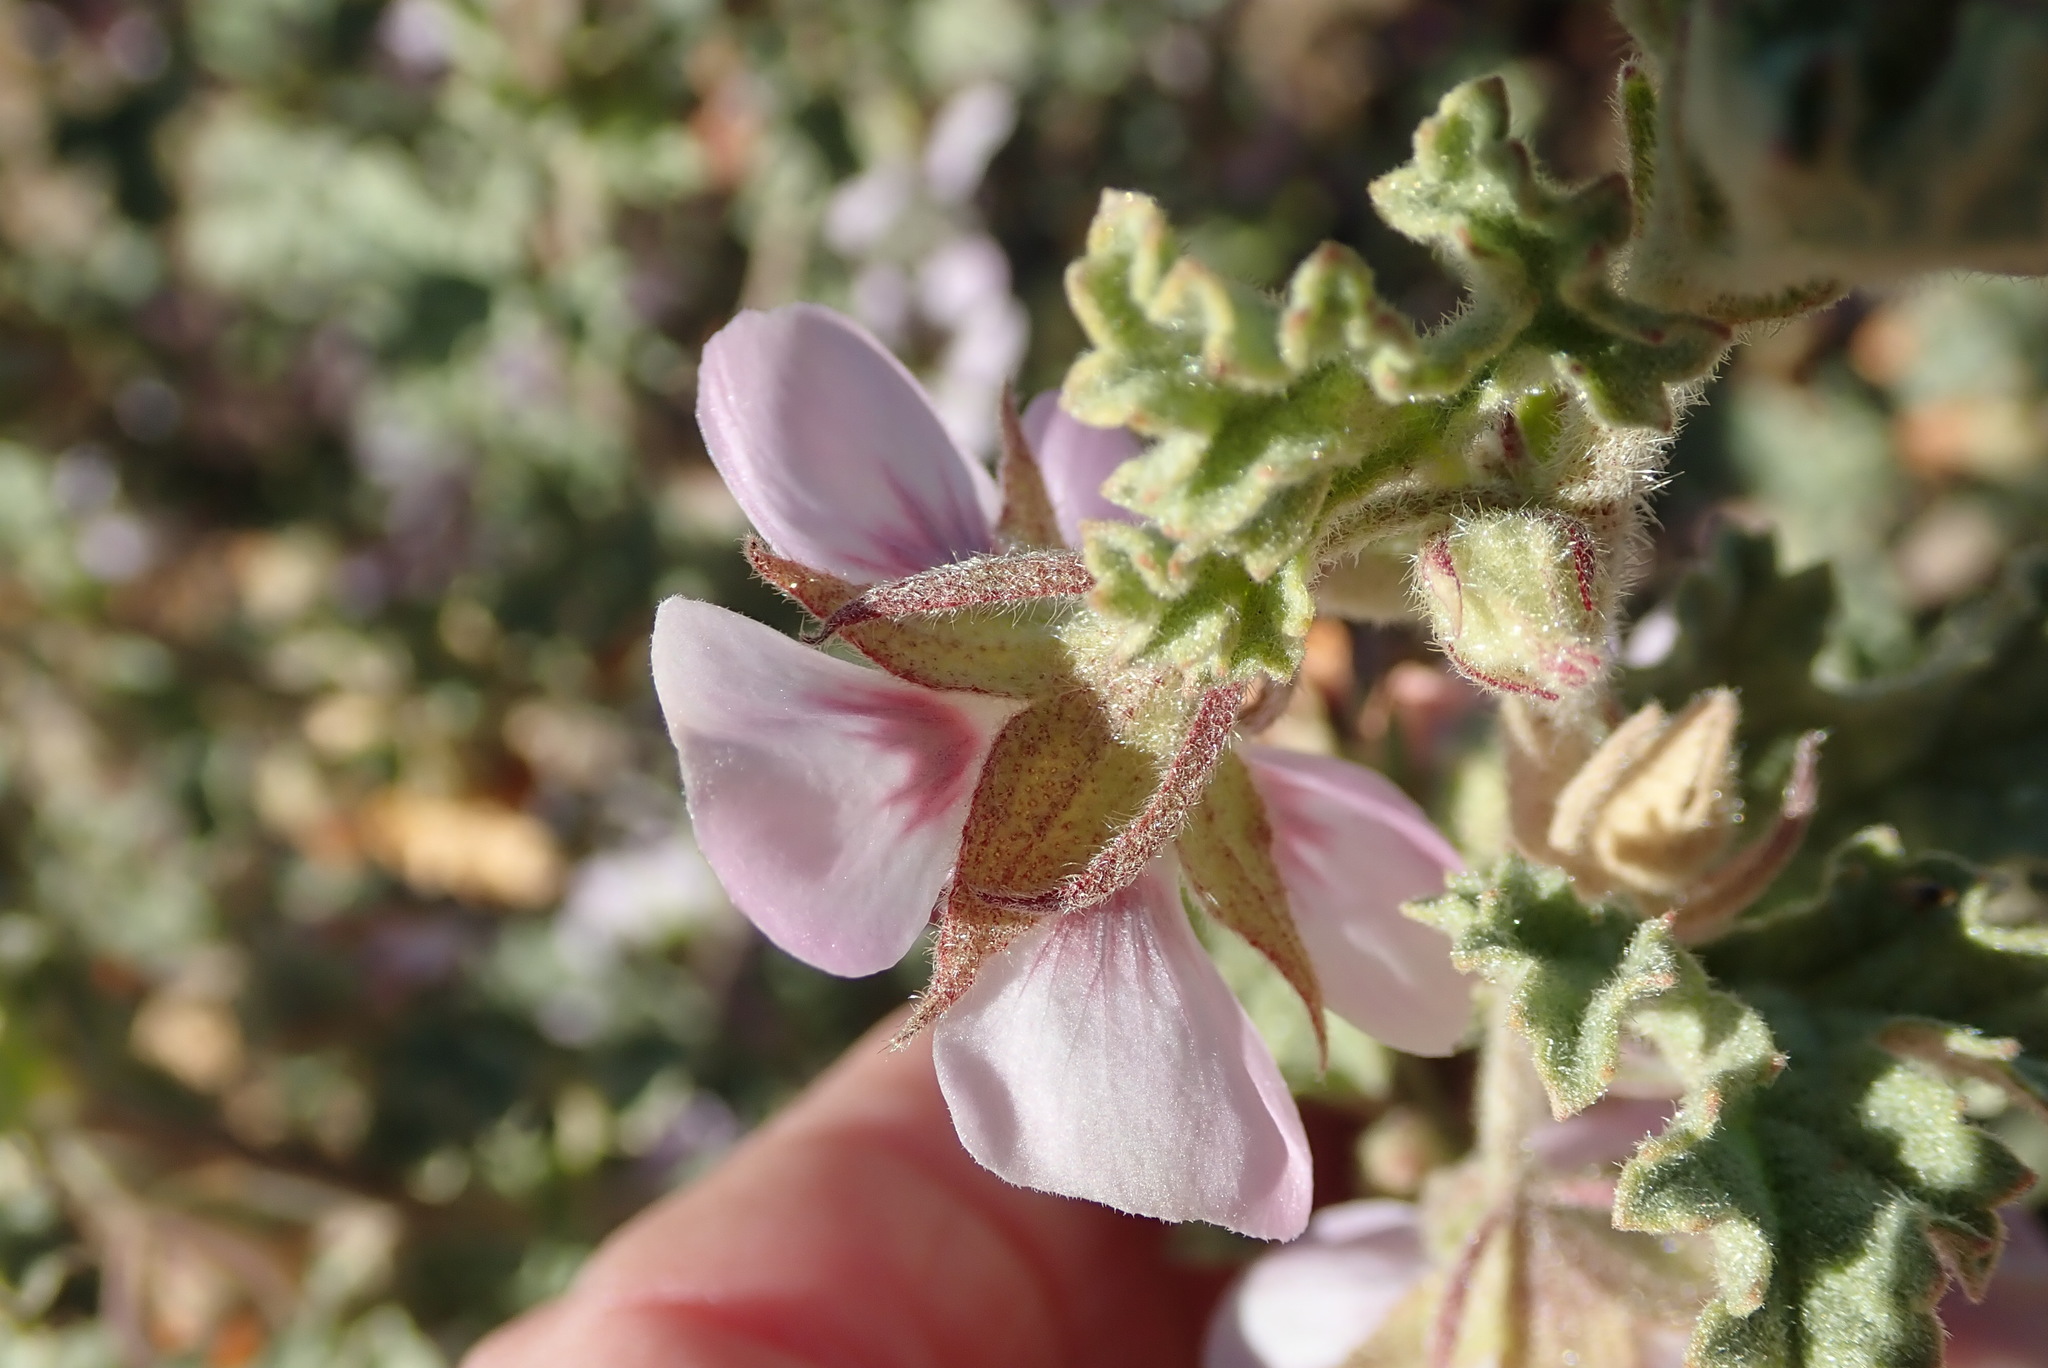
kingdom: Plantae
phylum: Tracheophyta
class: Magnoliopsida
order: Malvales
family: Malvaceae
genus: Anisodontea
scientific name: Anisodontea triloba
